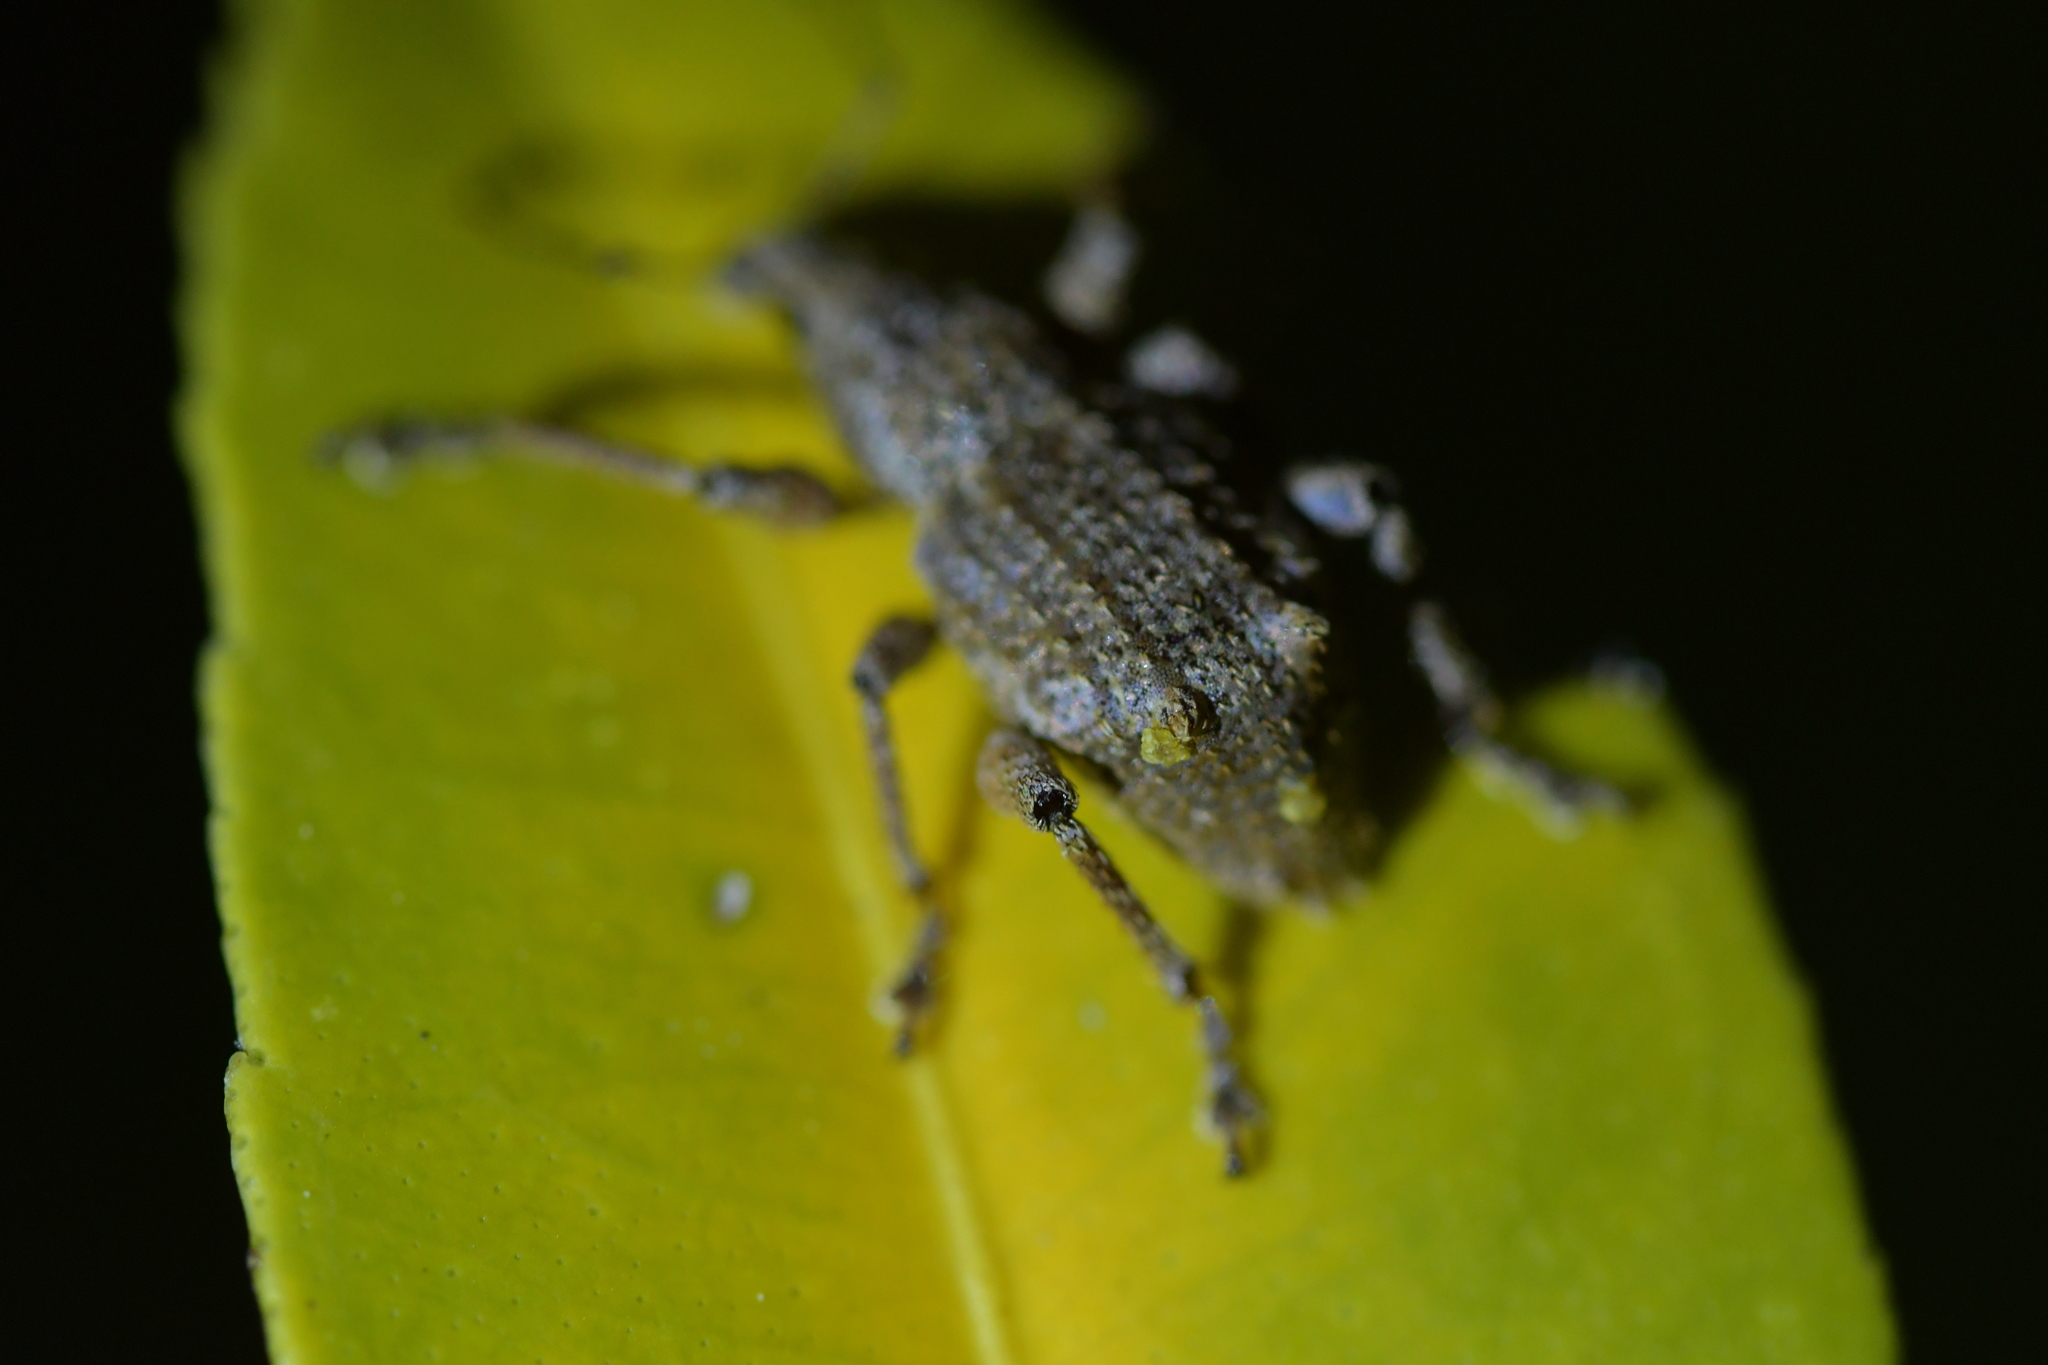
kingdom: Animalia
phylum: Arthropoda
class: Insecta
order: Coleoptera
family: Curculionidae
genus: Catoptes
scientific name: Catoptes binodis
